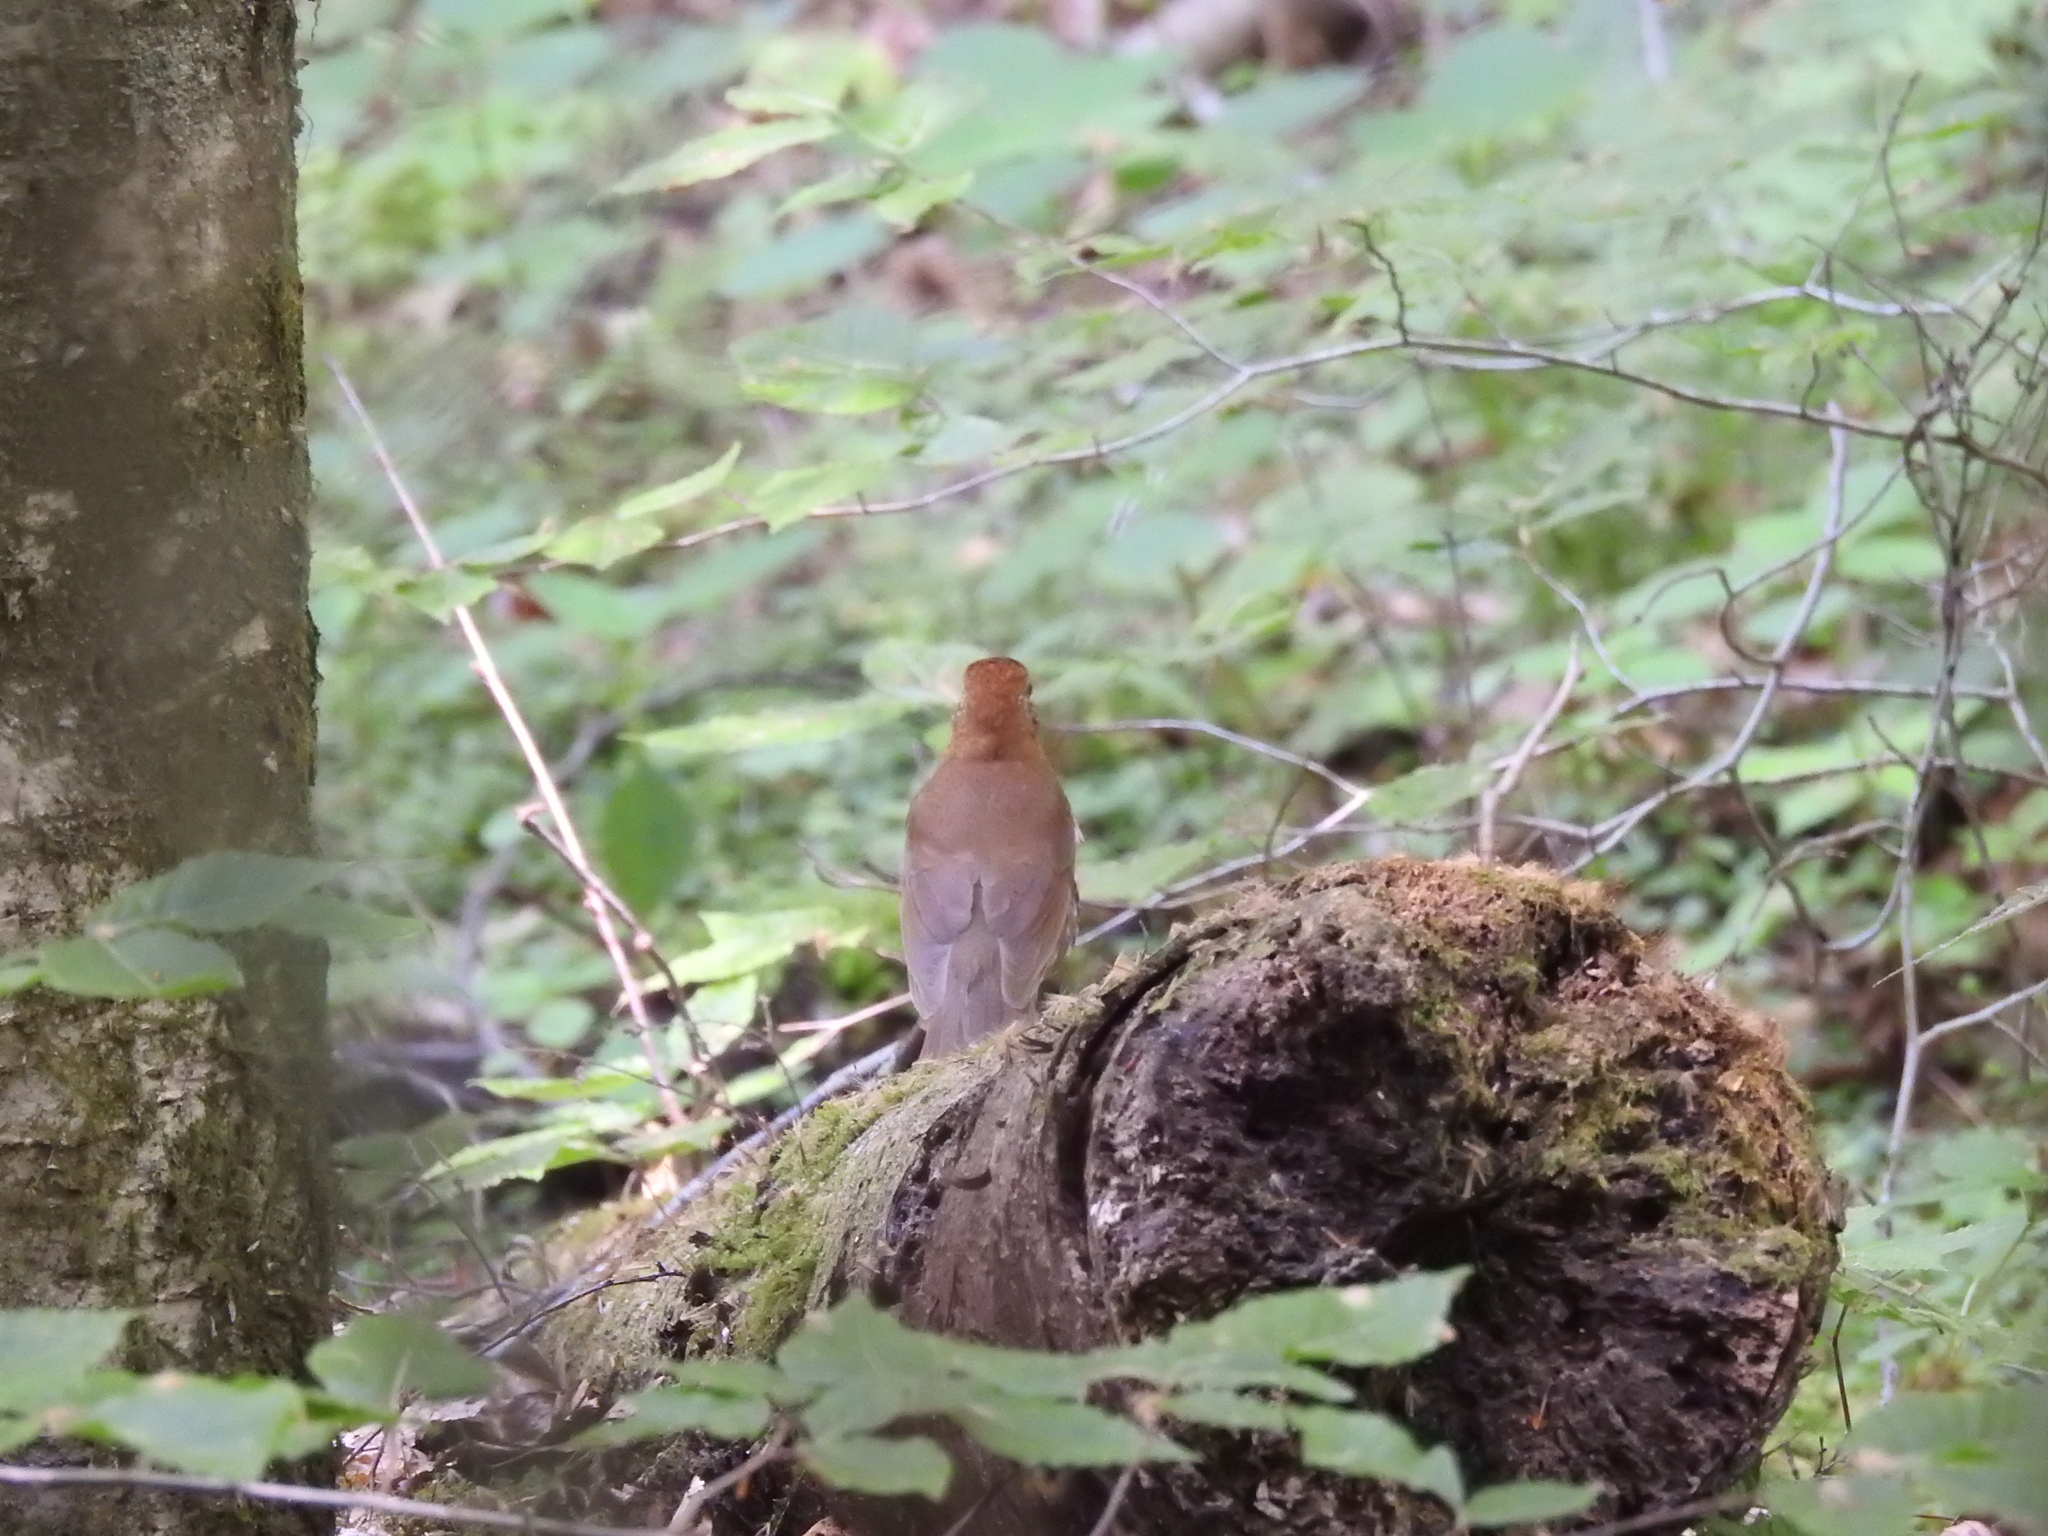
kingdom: Animalia
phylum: Chordata
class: Aves
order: Passeriformes
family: Turdidae
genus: Hylocichla
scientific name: Hylocichla mustelina
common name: Wood thrush
